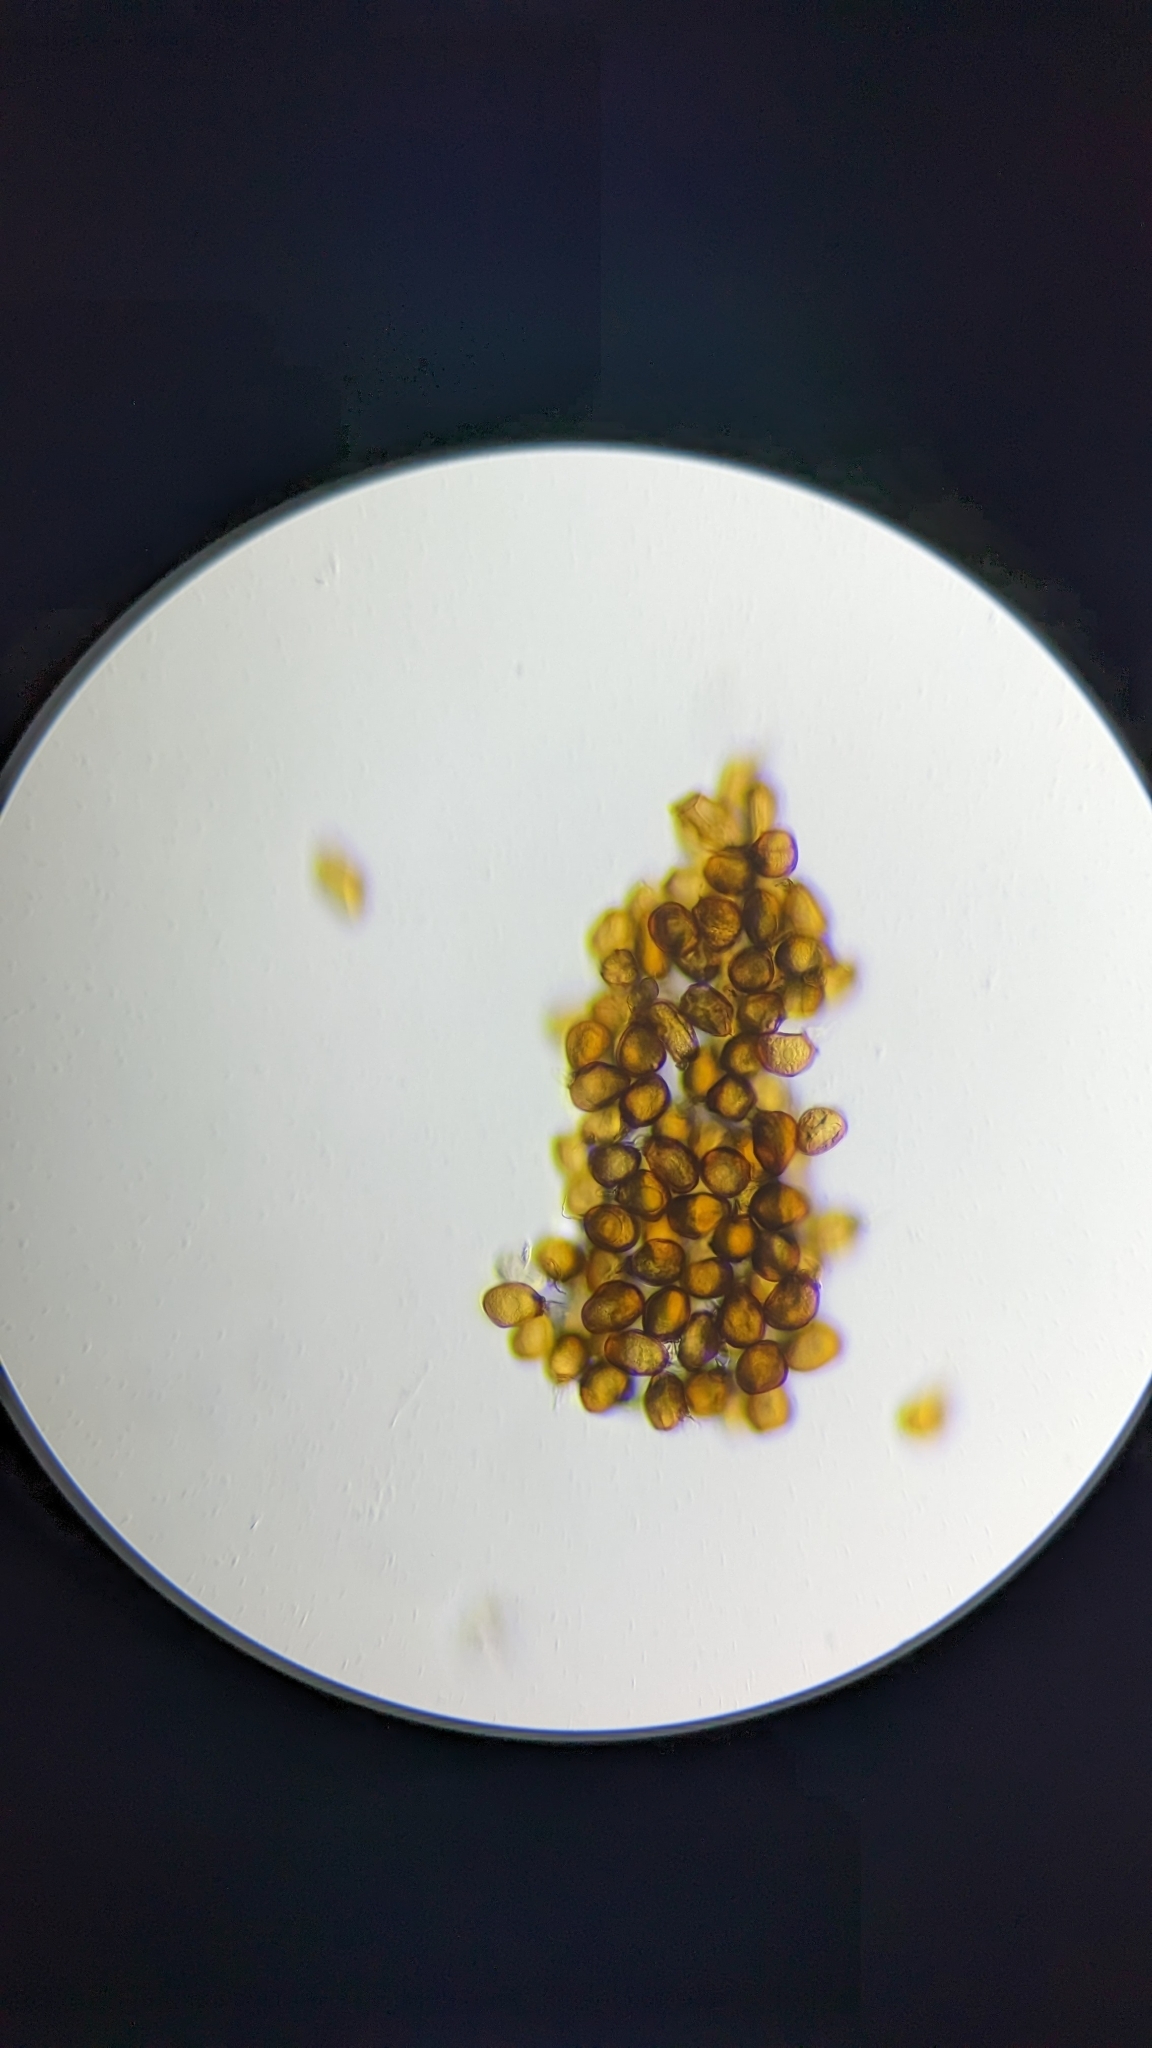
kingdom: Fungi
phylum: Basidiomycota
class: Pucciniomycetes
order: Pucciniales
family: Pucciniaceae
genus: Uromyces
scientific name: Uromyces muscari
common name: Bluebell rust
